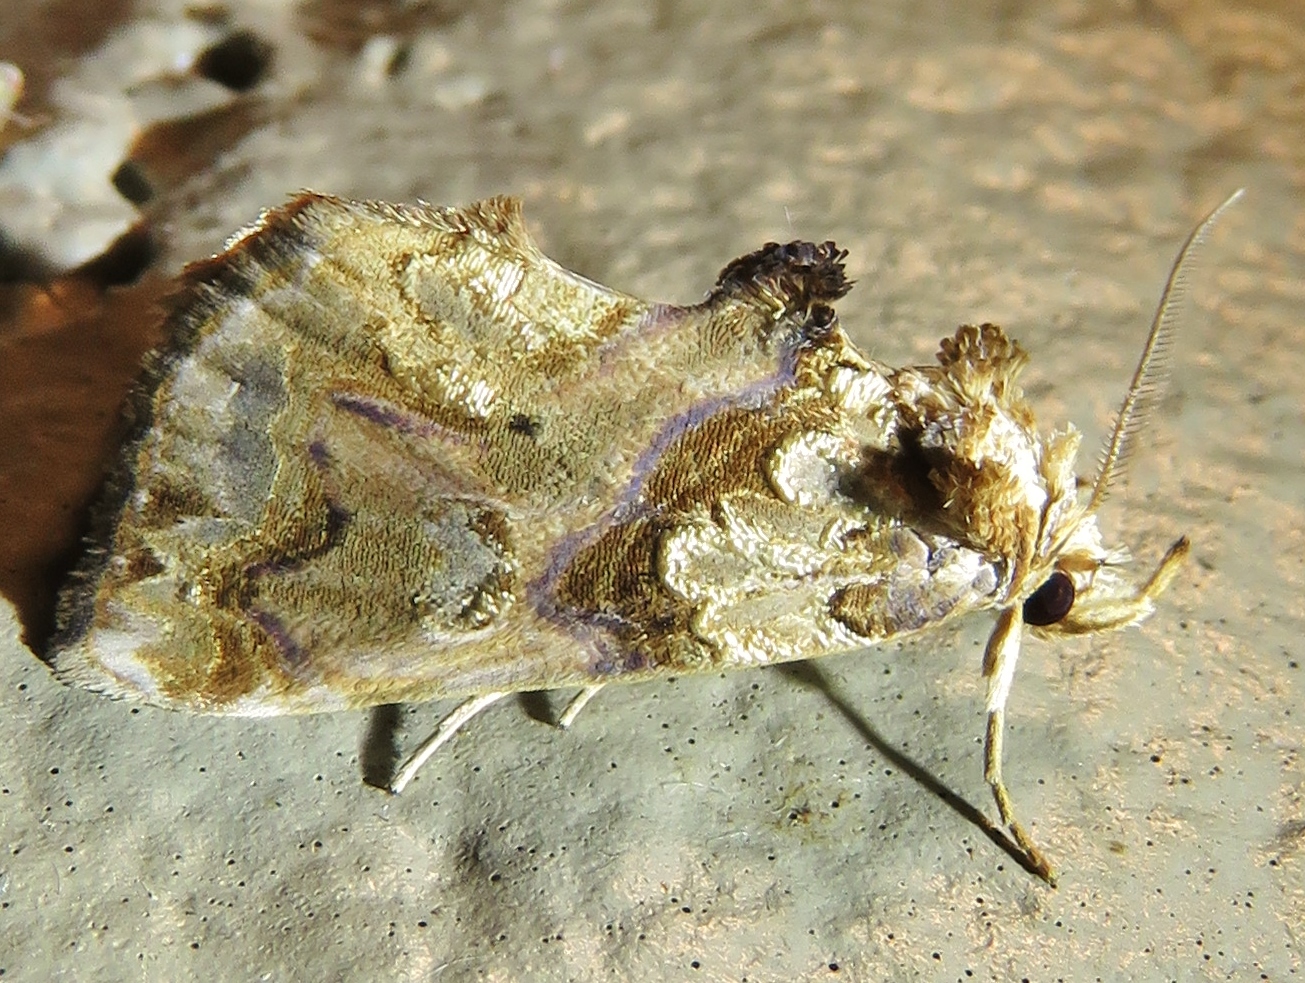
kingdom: Animalia
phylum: Arthropoda
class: Insecta
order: Lepidoptera
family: Erebidae
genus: Plusiodonta
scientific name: Plusiodonta compressipalpis
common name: Moonseed moth
